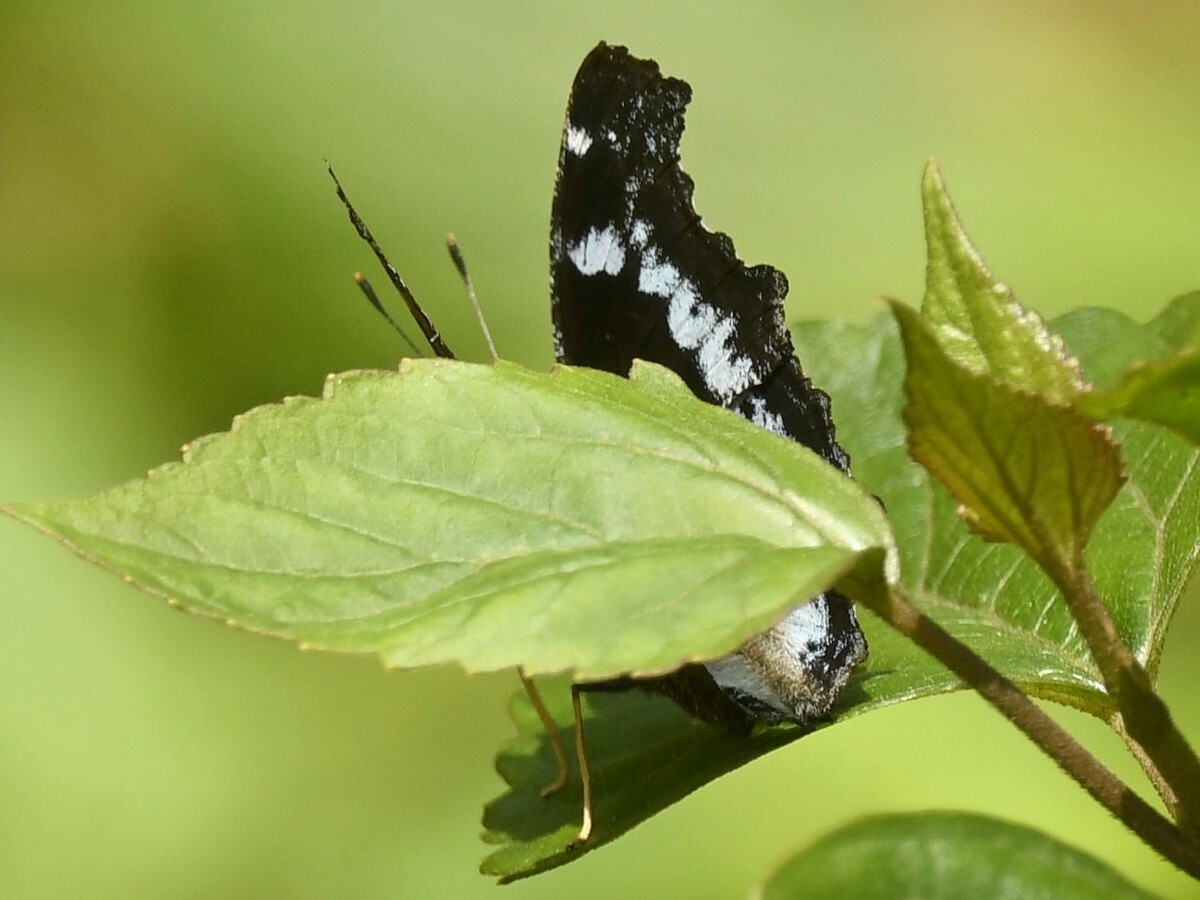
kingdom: Animalia
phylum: Arthropoda
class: Insecta
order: Lepidoptera
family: Nymphalidae
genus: Vanessa
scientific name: Vanessa Kaniska canace
